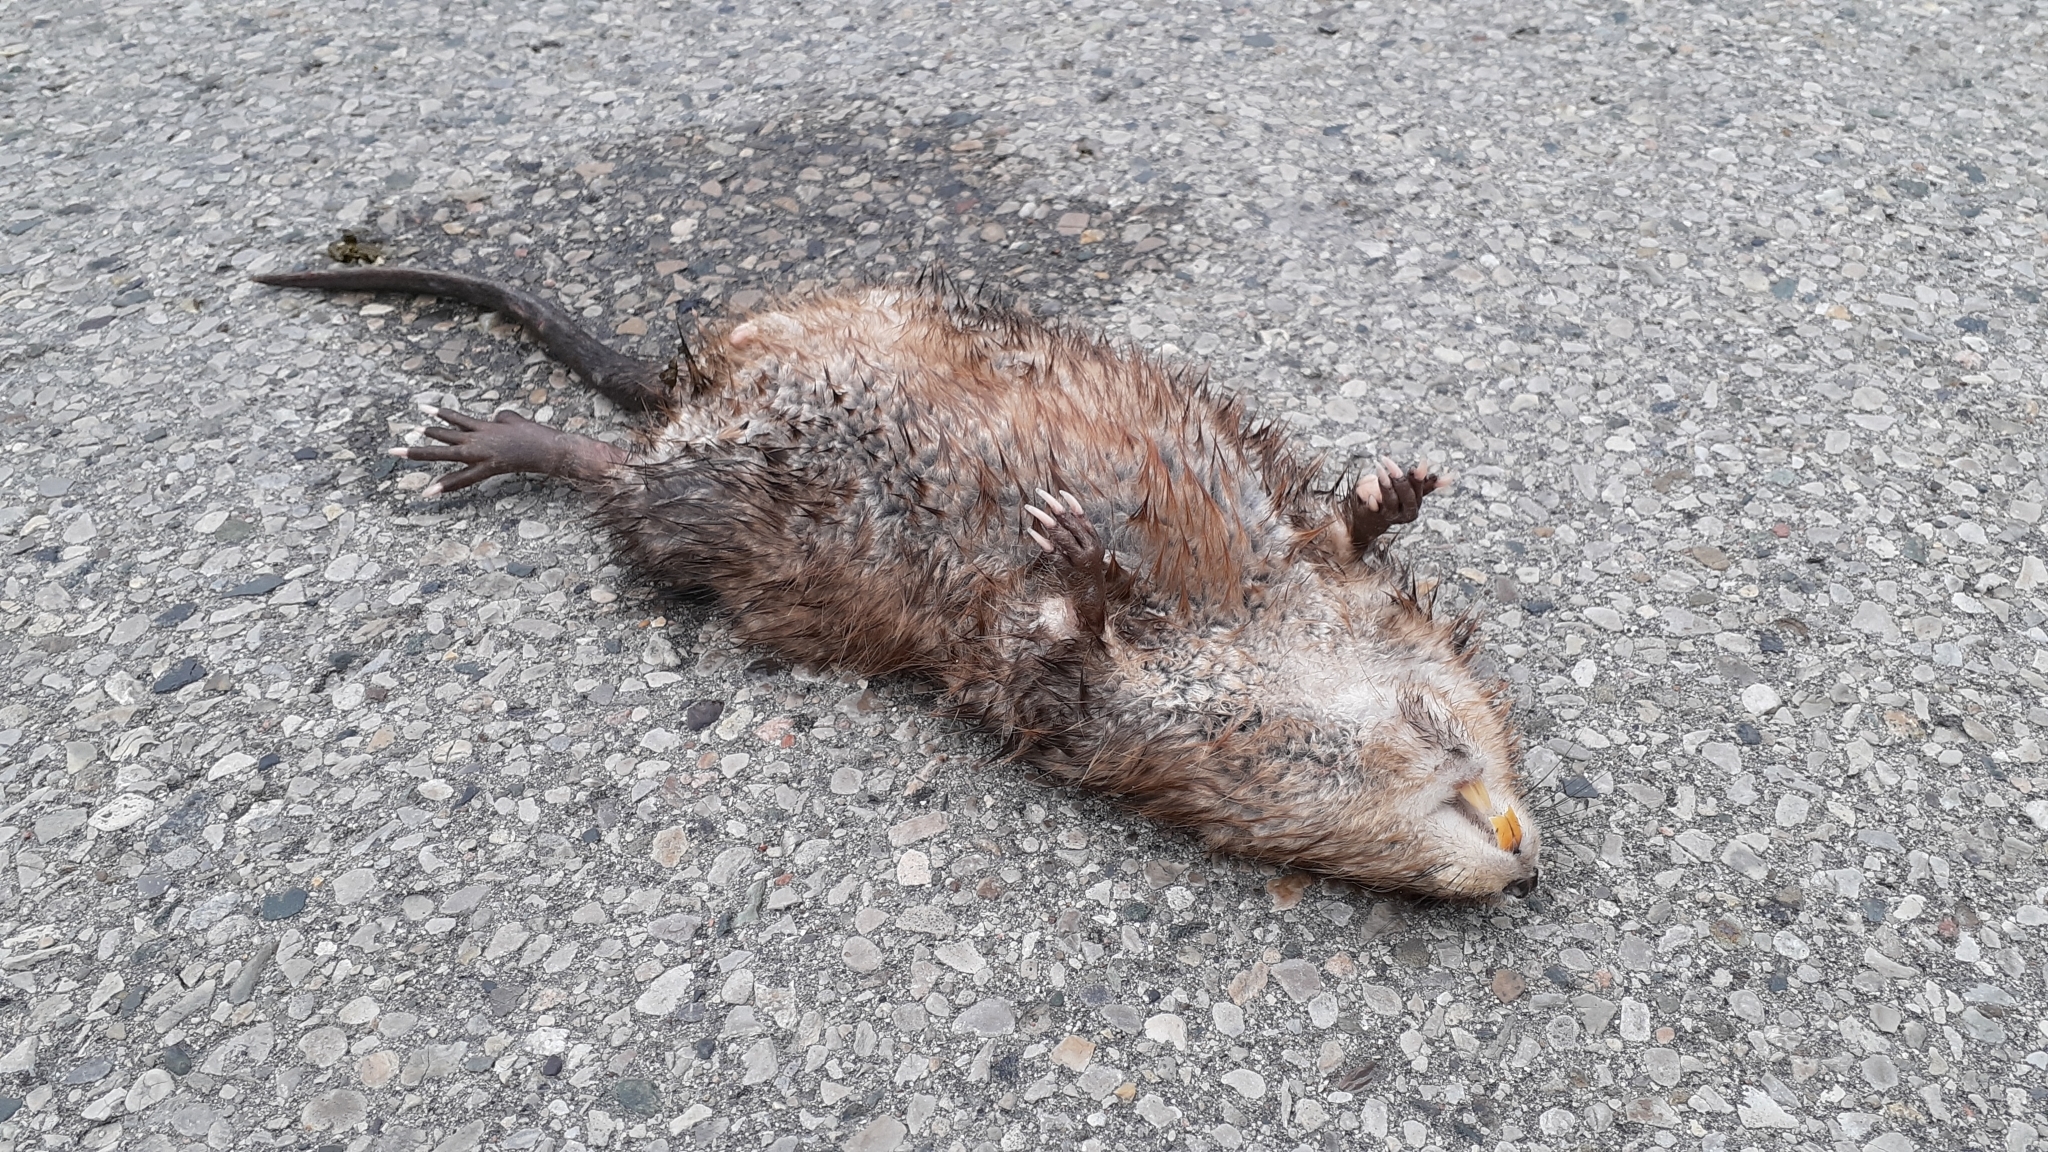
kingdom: Animalia
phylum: Chordata
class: Mammalia
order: Rodentia
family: Cricetidae
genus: Ondatra
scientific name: Ondatra zibethicus
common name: Muskrat
